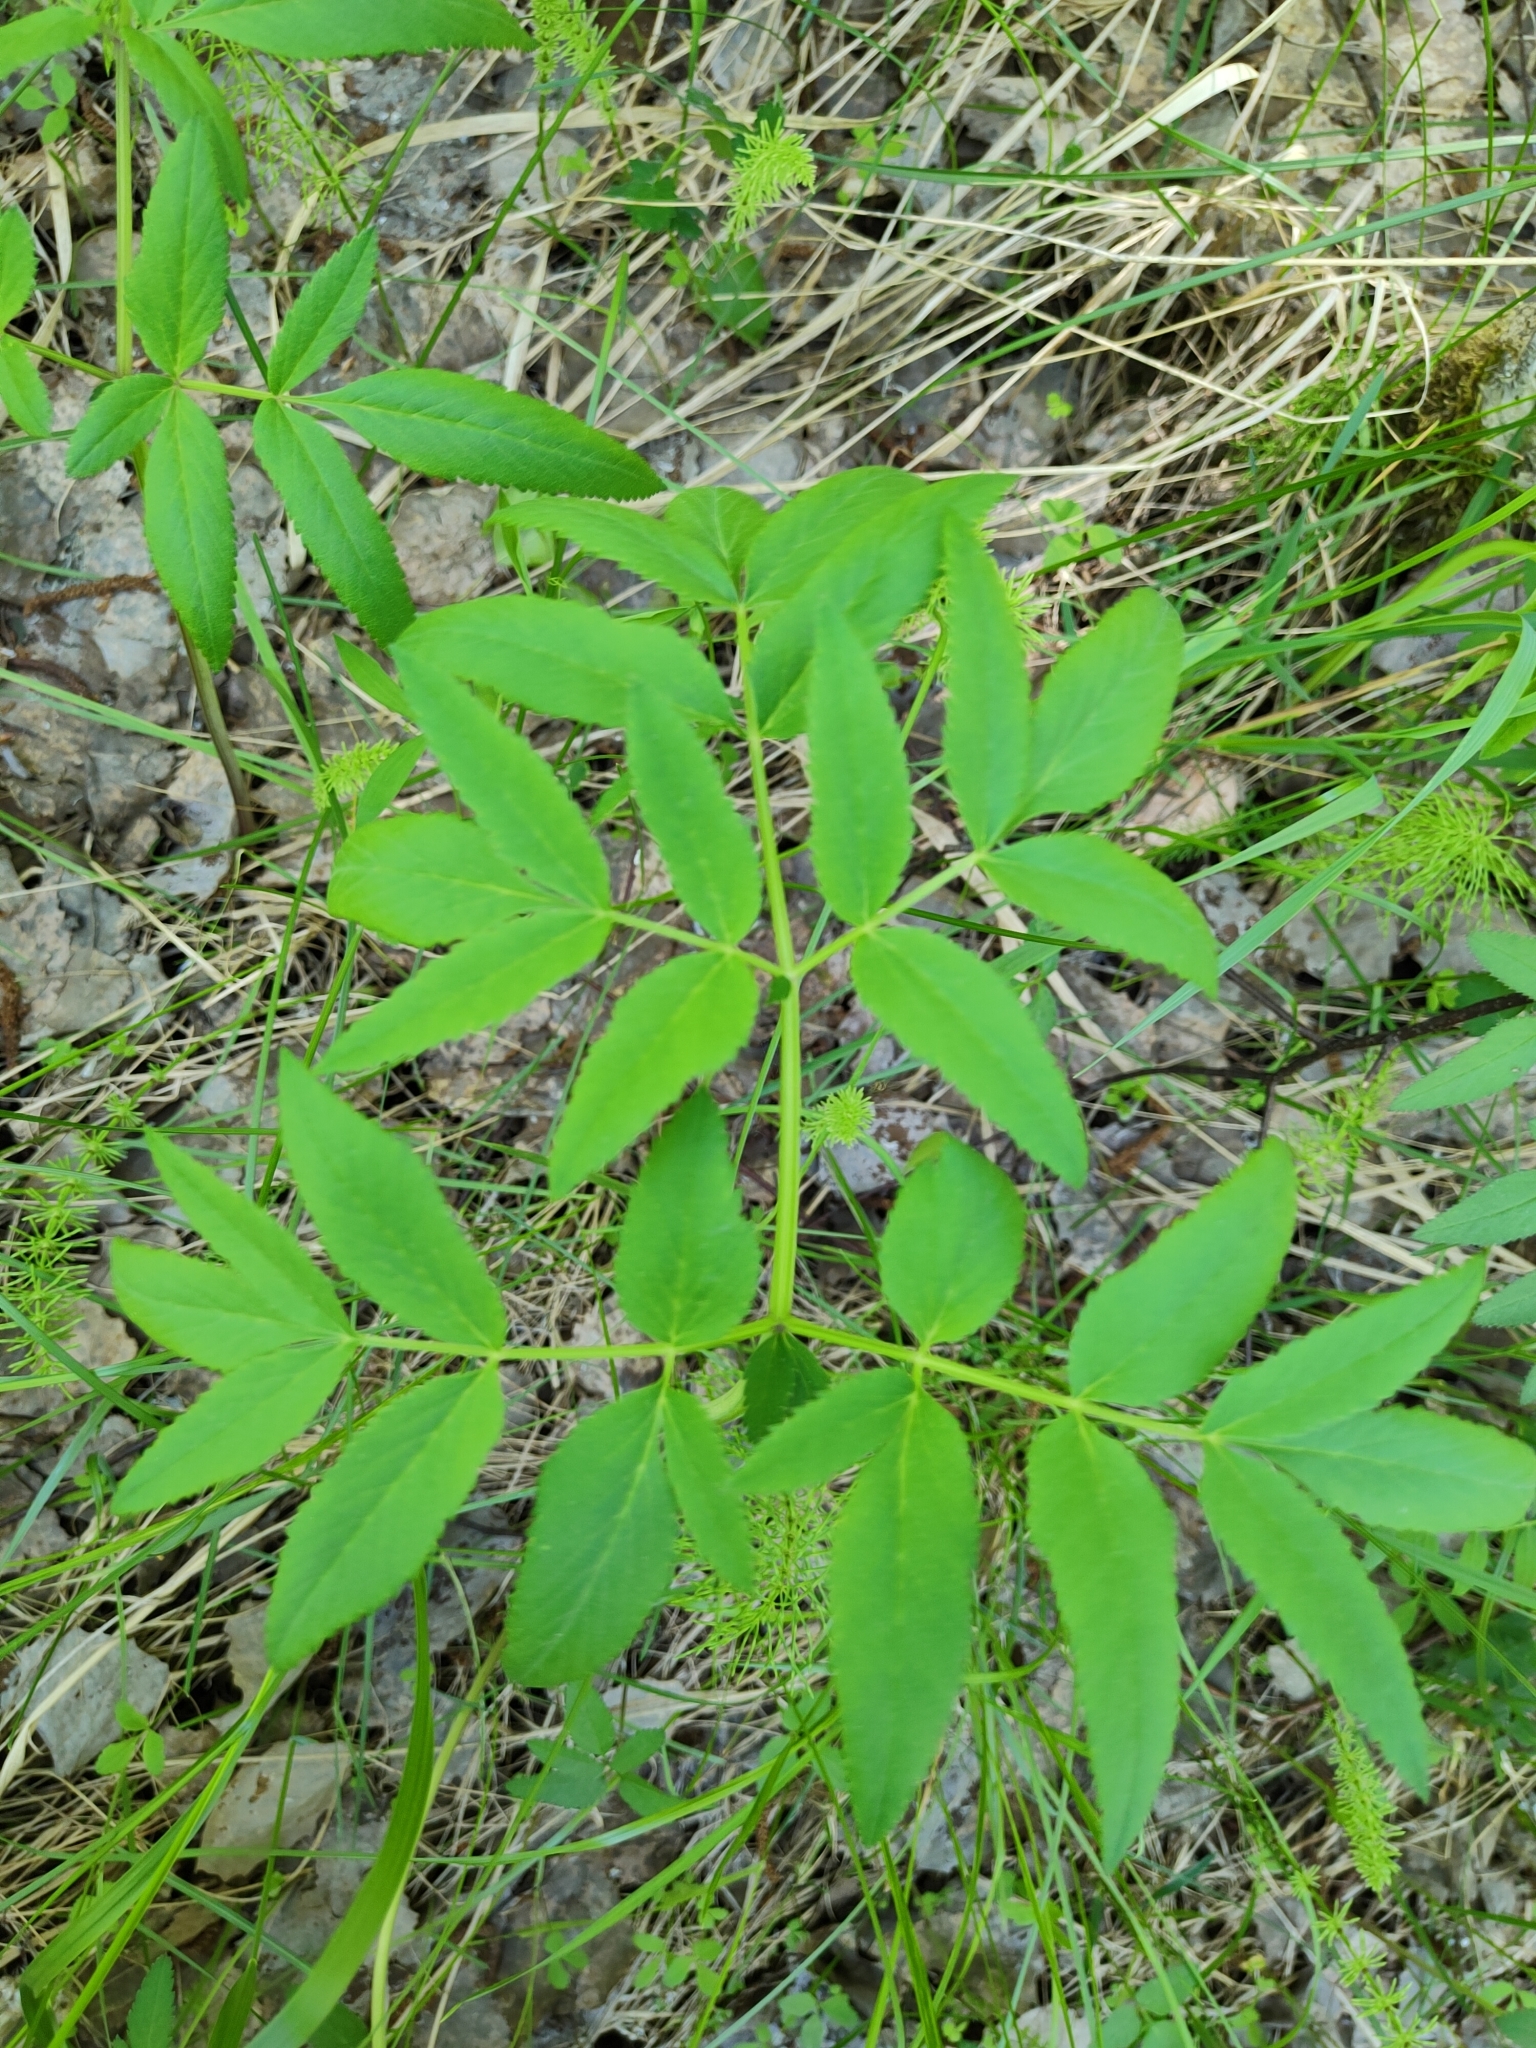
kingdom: Plantae
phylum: Tracheophyta
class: Magnoliopsida
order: Apiales
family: Apiaceae
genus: Angelica
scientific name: Angelica sylvestris
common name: Wild angelica
